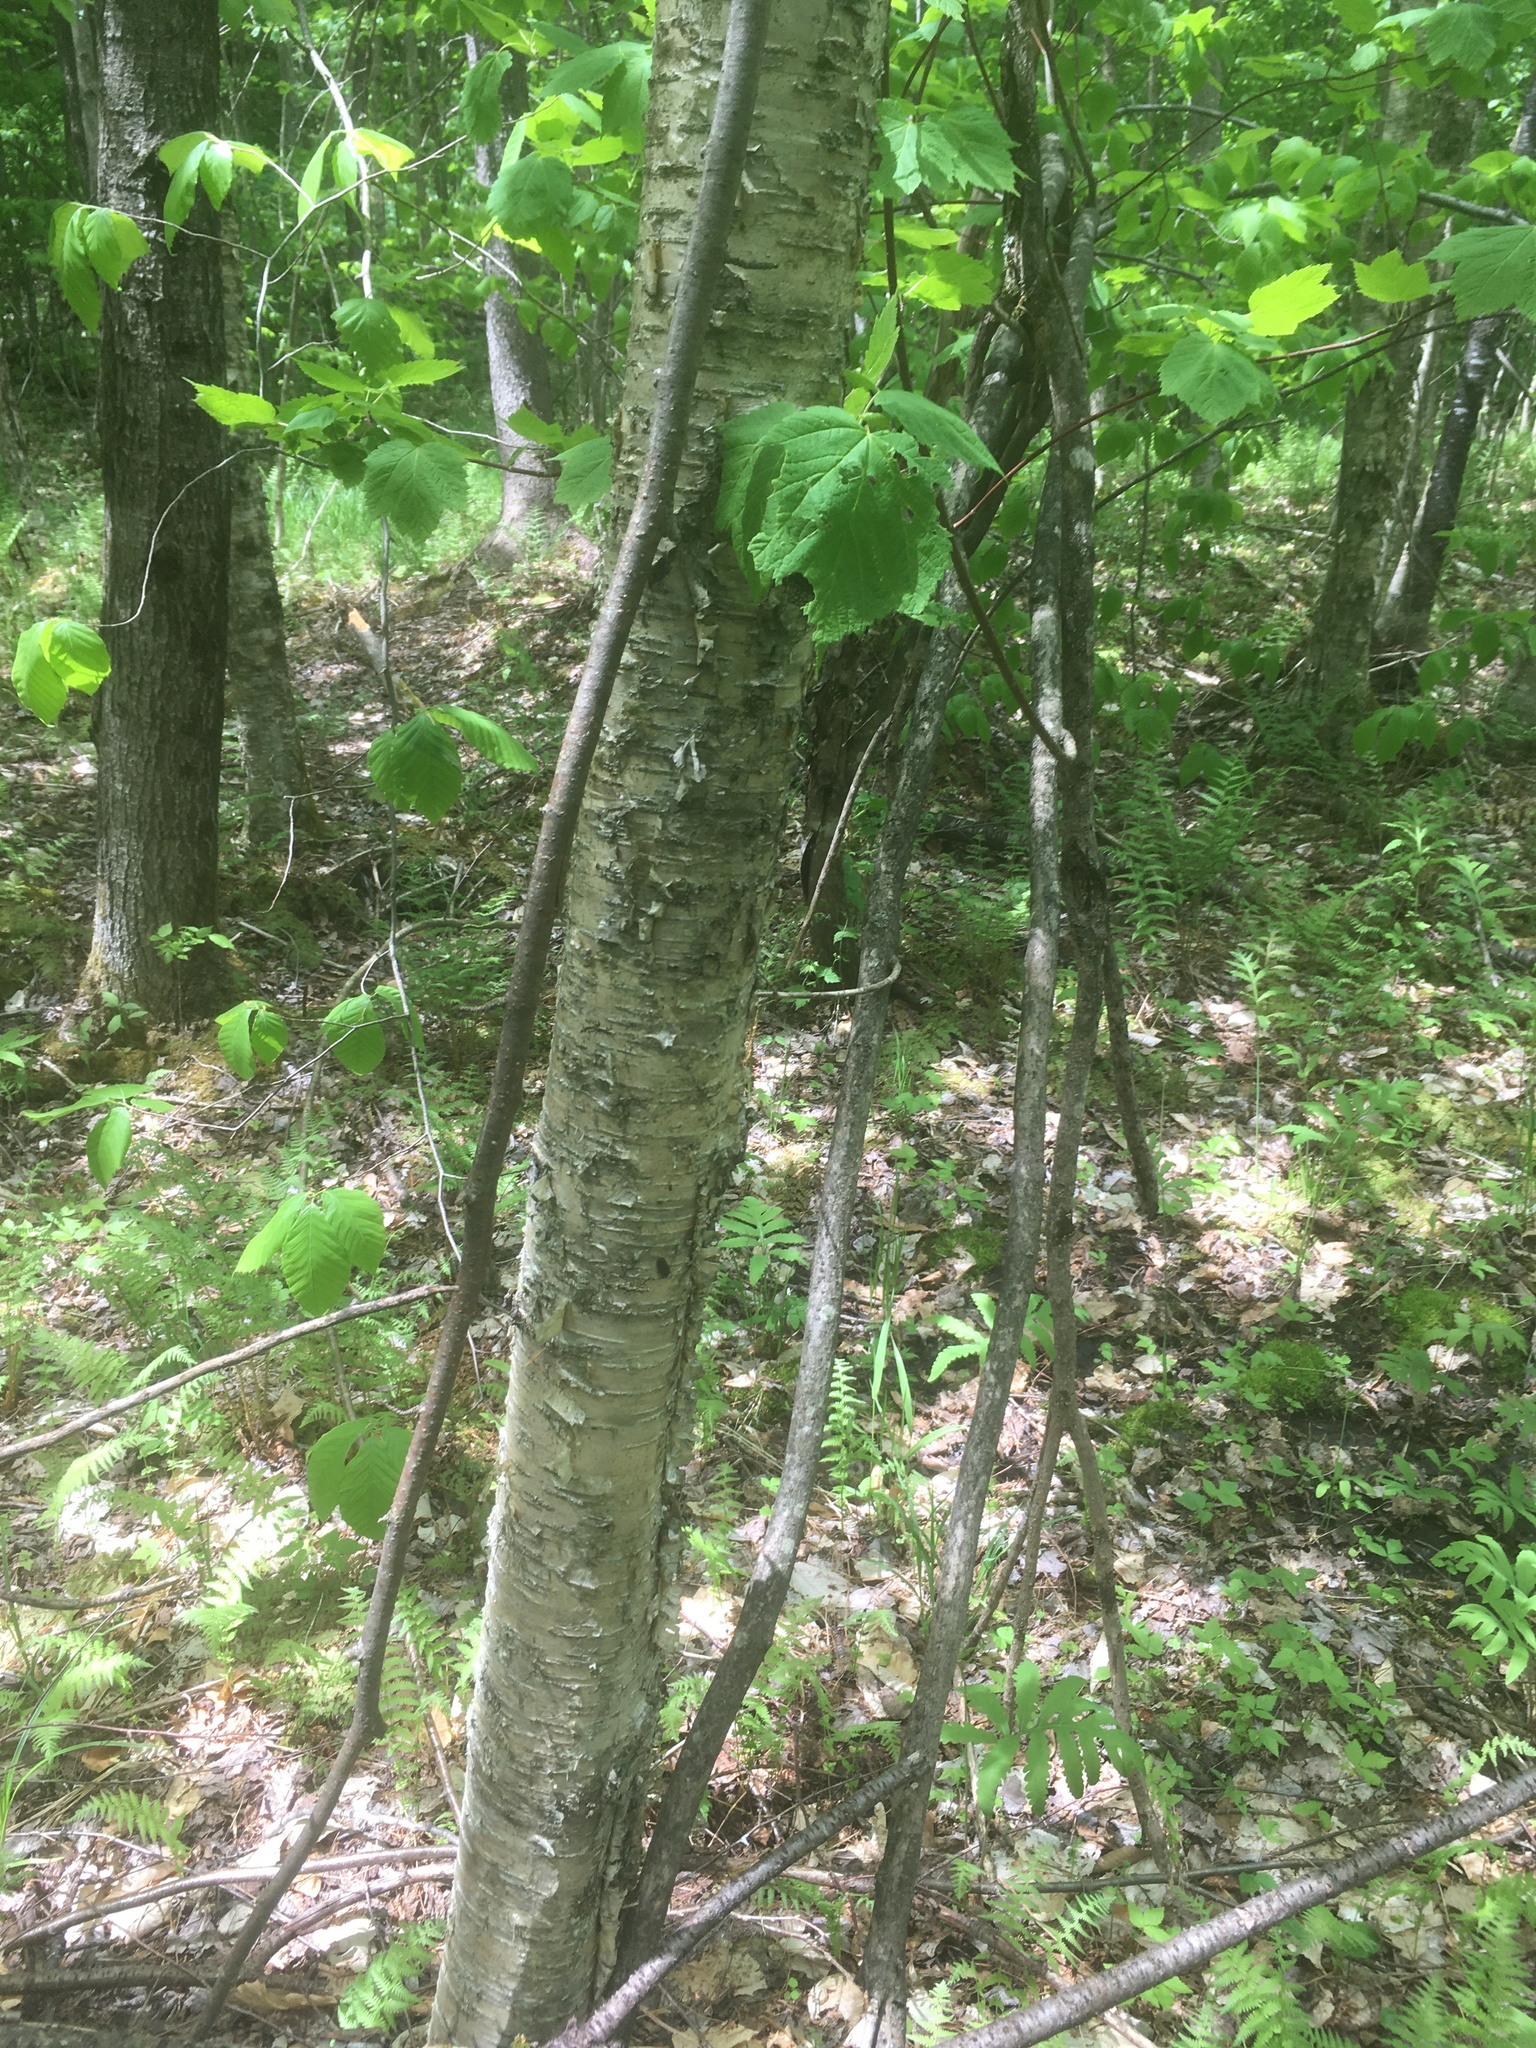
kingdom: Plantae
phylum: Tracheophyta
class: Magnoliopsida
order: Fagales
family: Betulaceae
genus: Betula
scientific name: Betula alleghaniensis
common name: Yellow birch
